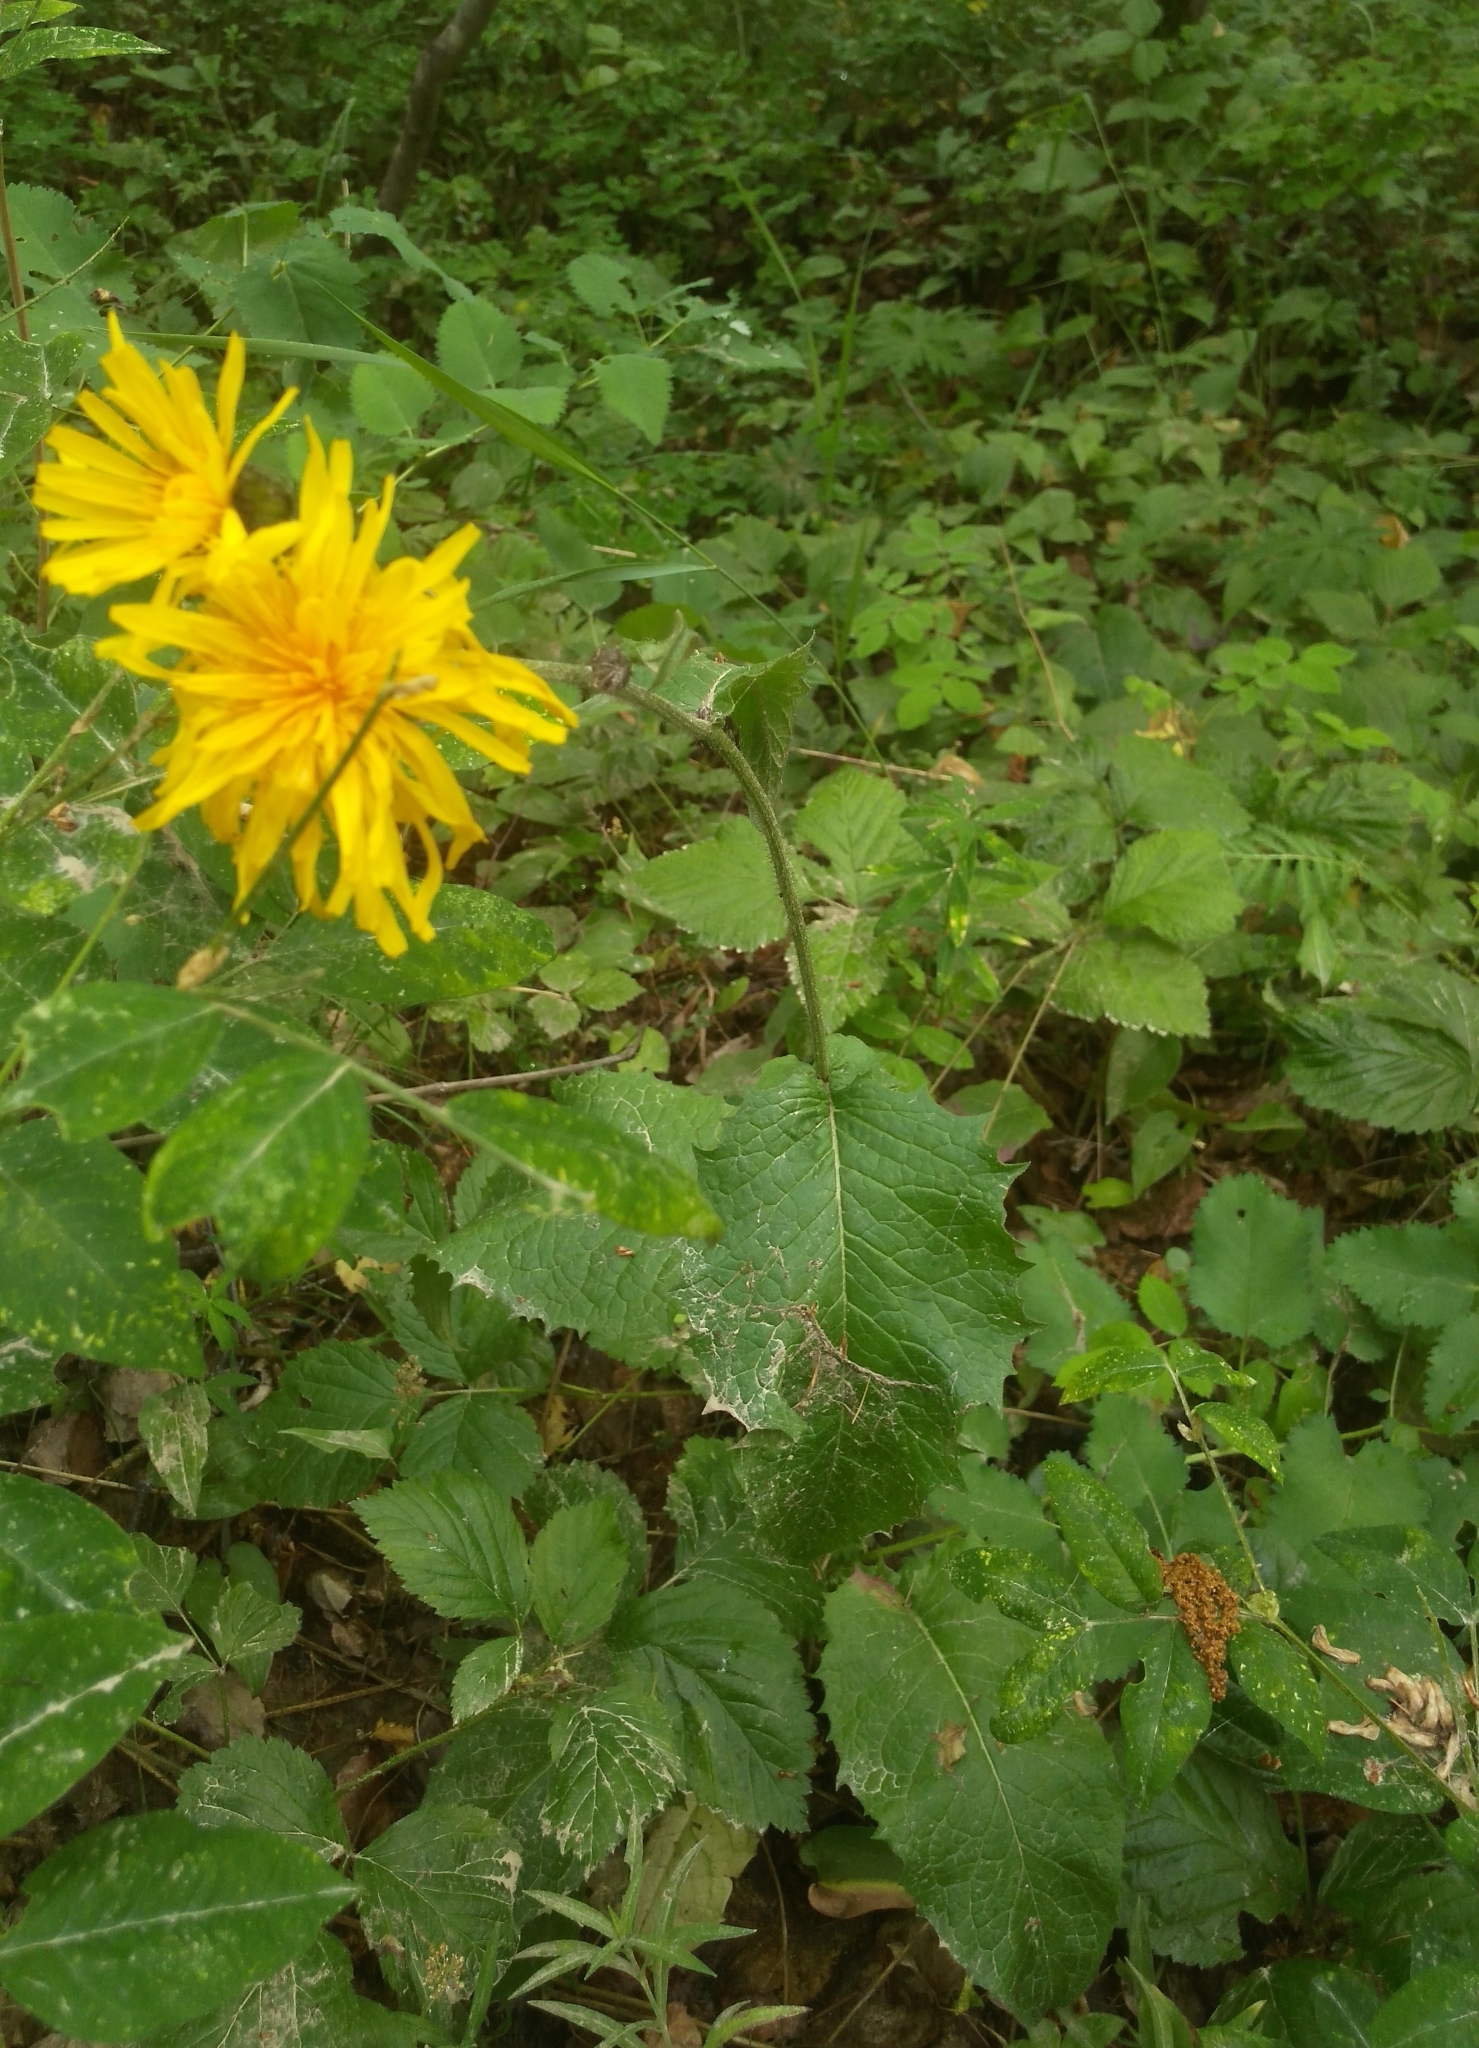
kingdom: Plantae
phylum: Tracheophyta
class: Magnoliopsida
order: Asterales
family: Asteraceae
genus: Crepis
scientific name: Crepis sibirica
